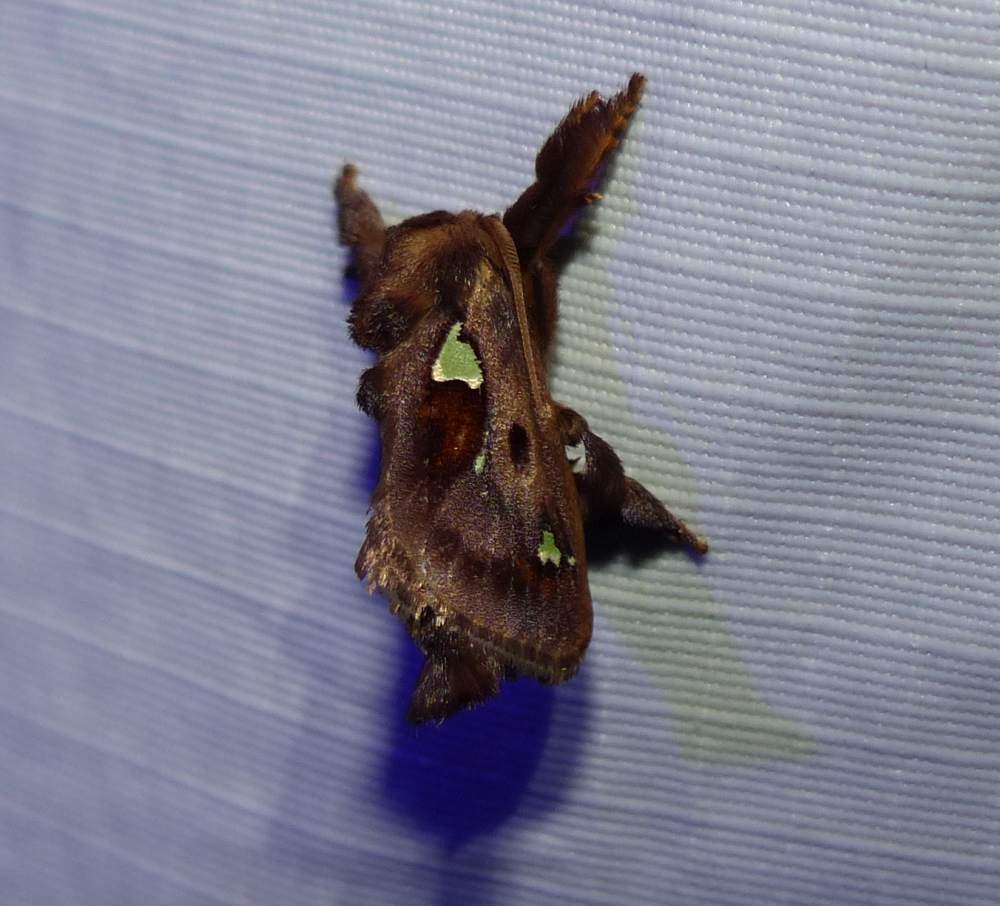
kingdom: Animalia
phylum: Arthropoda
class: Insecta
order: Lepidoptera
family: Limacodidae
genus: Euclea
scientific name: Euclea delphinii
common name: Spiny oak-slug moth
